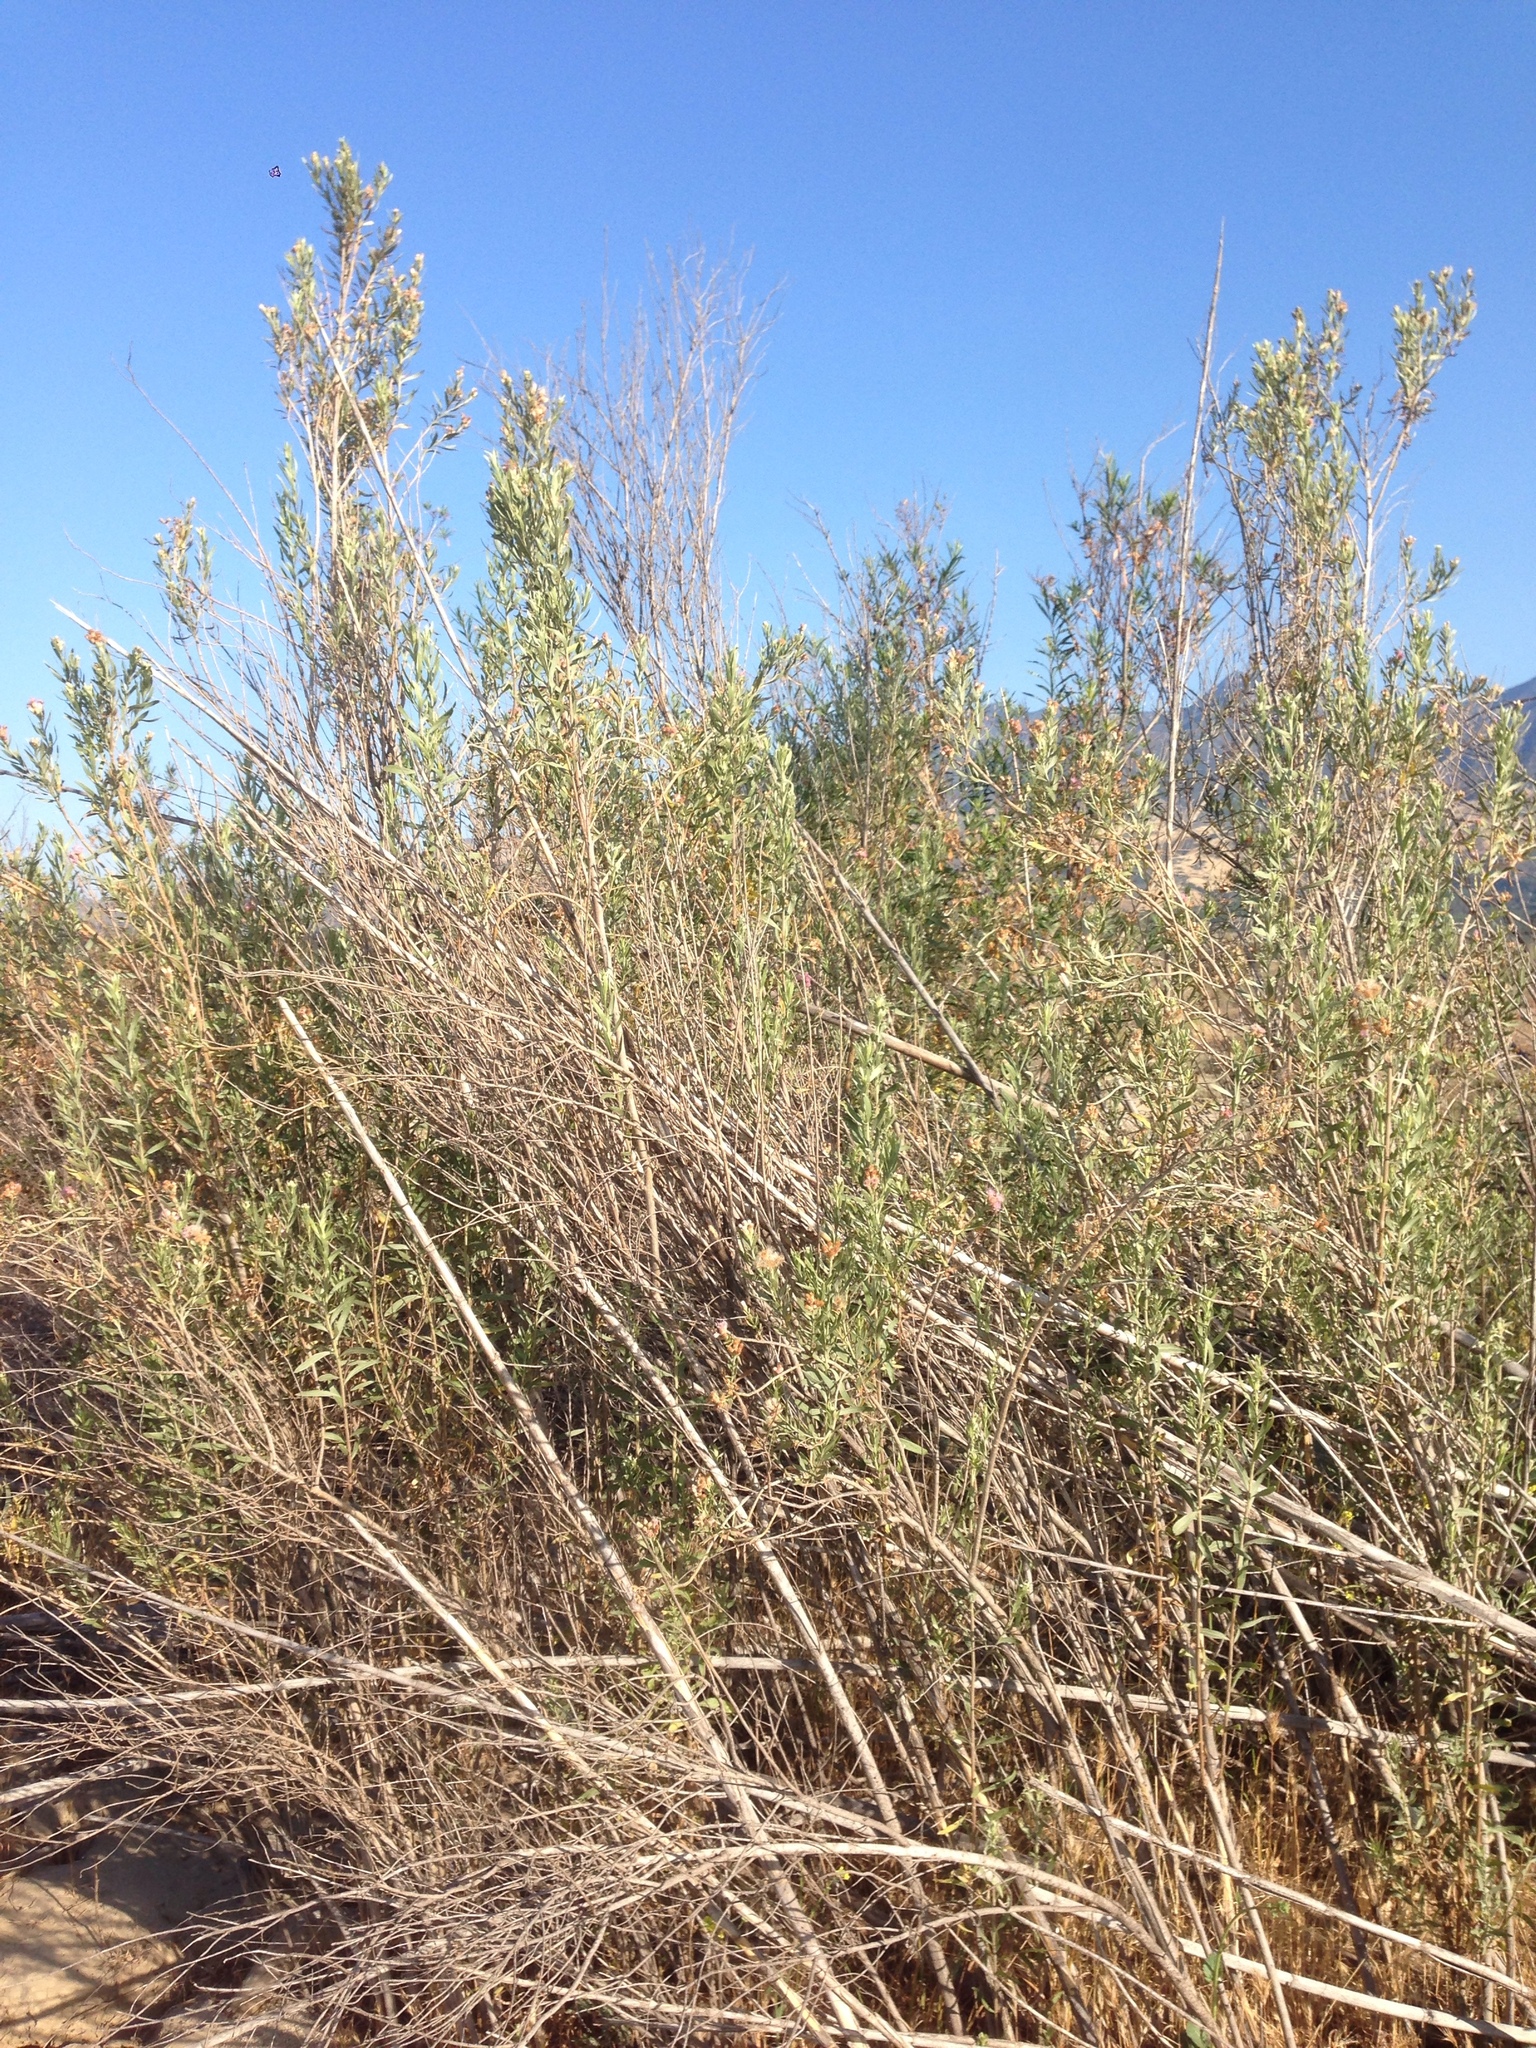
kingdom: Plantae
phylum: Tracheophyta
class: Magnoliopsida
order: Asterales
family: Asteraceae
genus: Pluchea
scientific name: Pluchea sericea
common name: Arrow-weed
